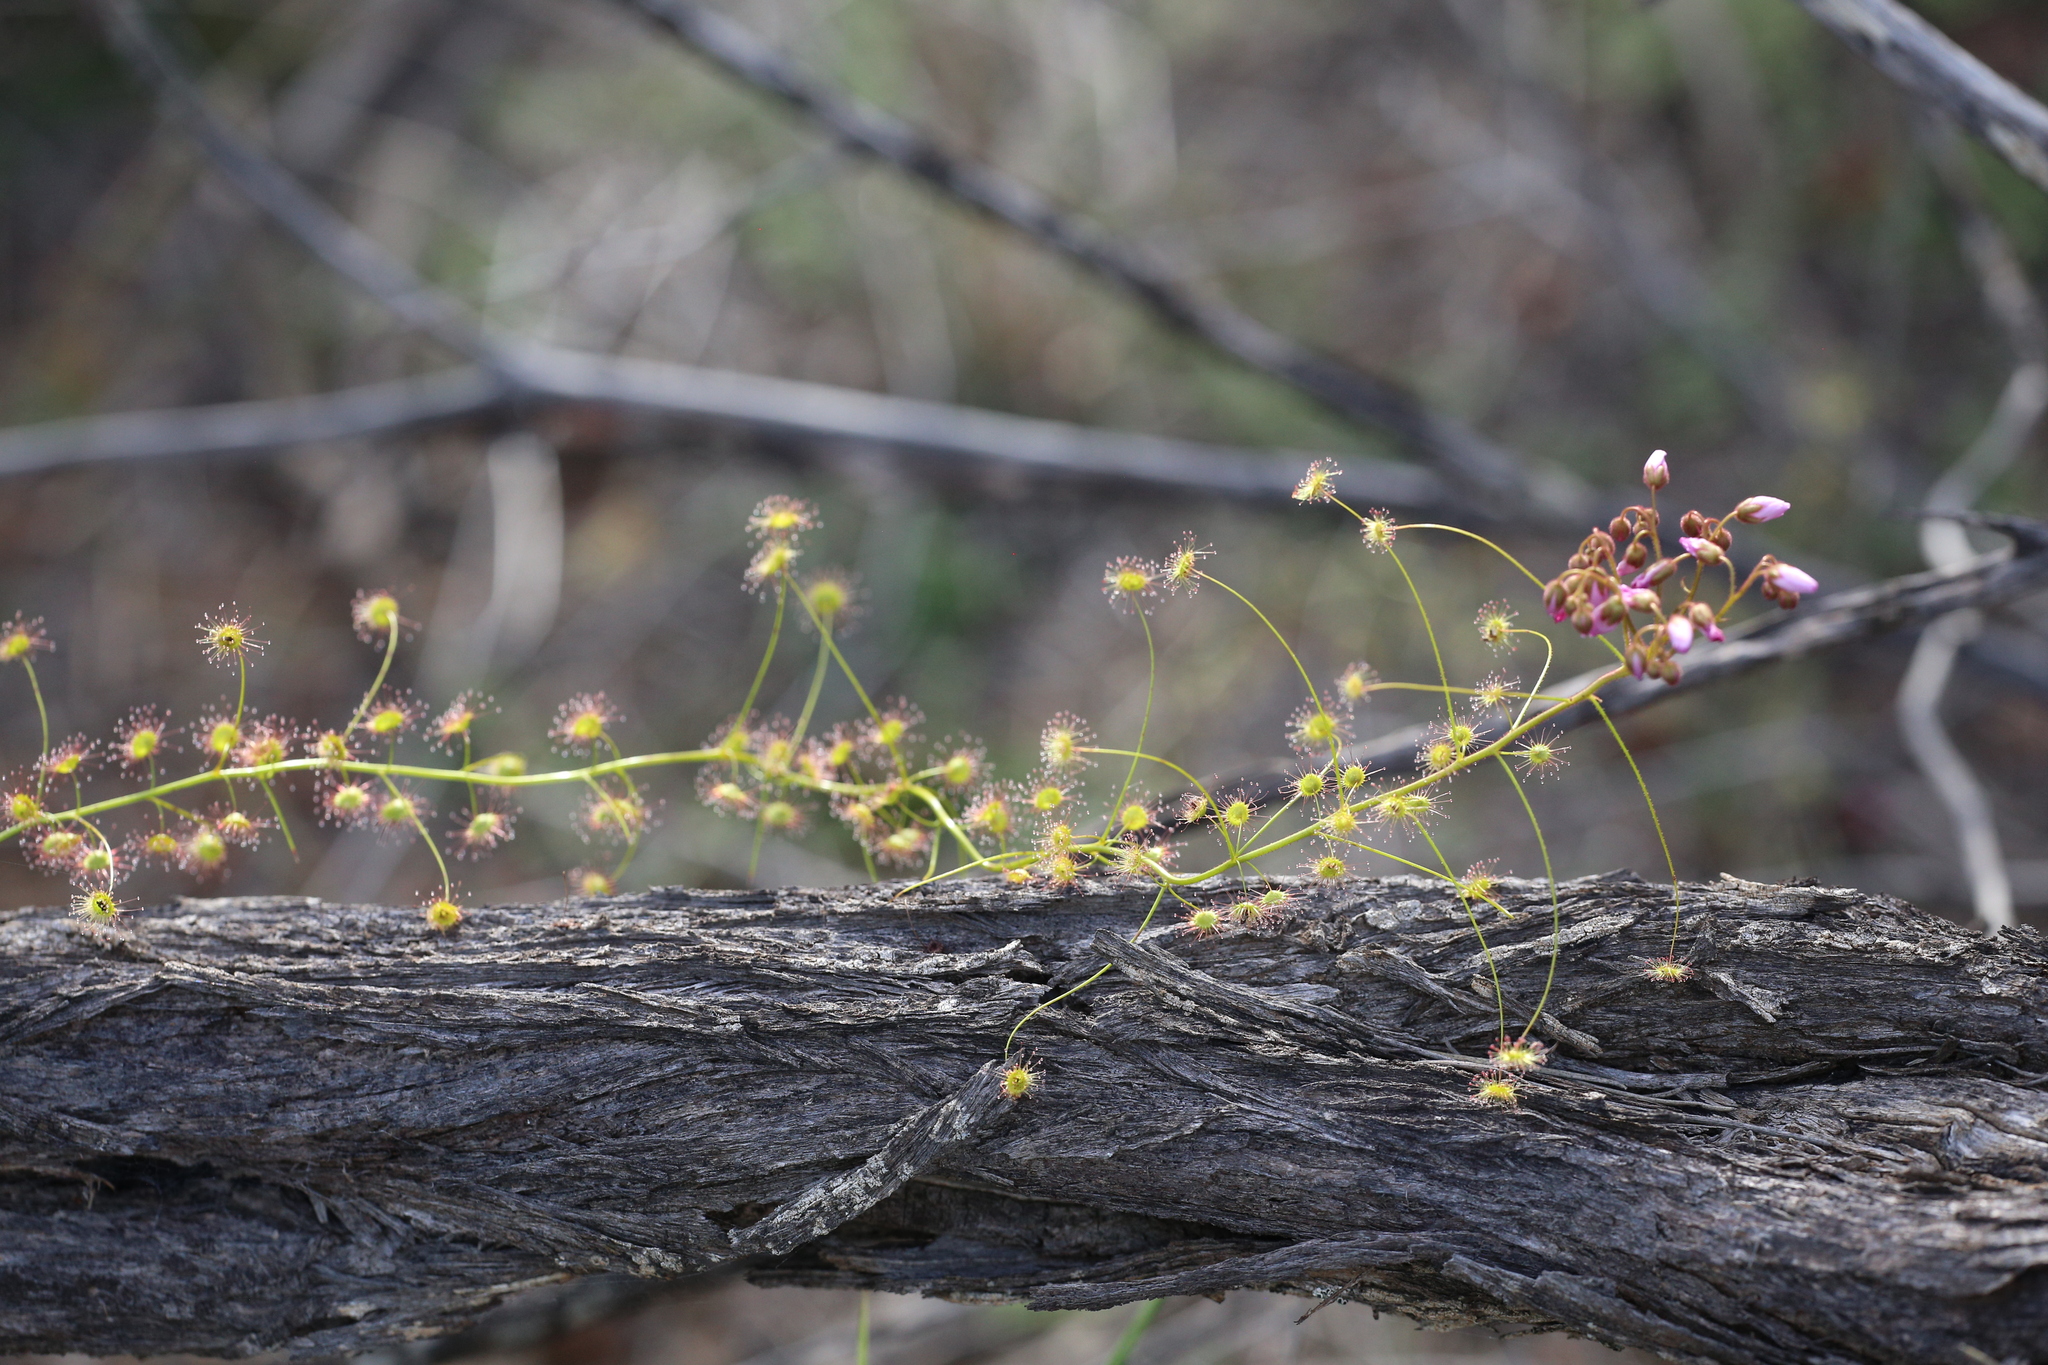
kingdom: Plantae
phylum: Tracheophyta
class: Magnoliopsida
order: Caryophyllales
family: Droseraceae
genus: Drosera
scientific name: Drosera stricticaulis
